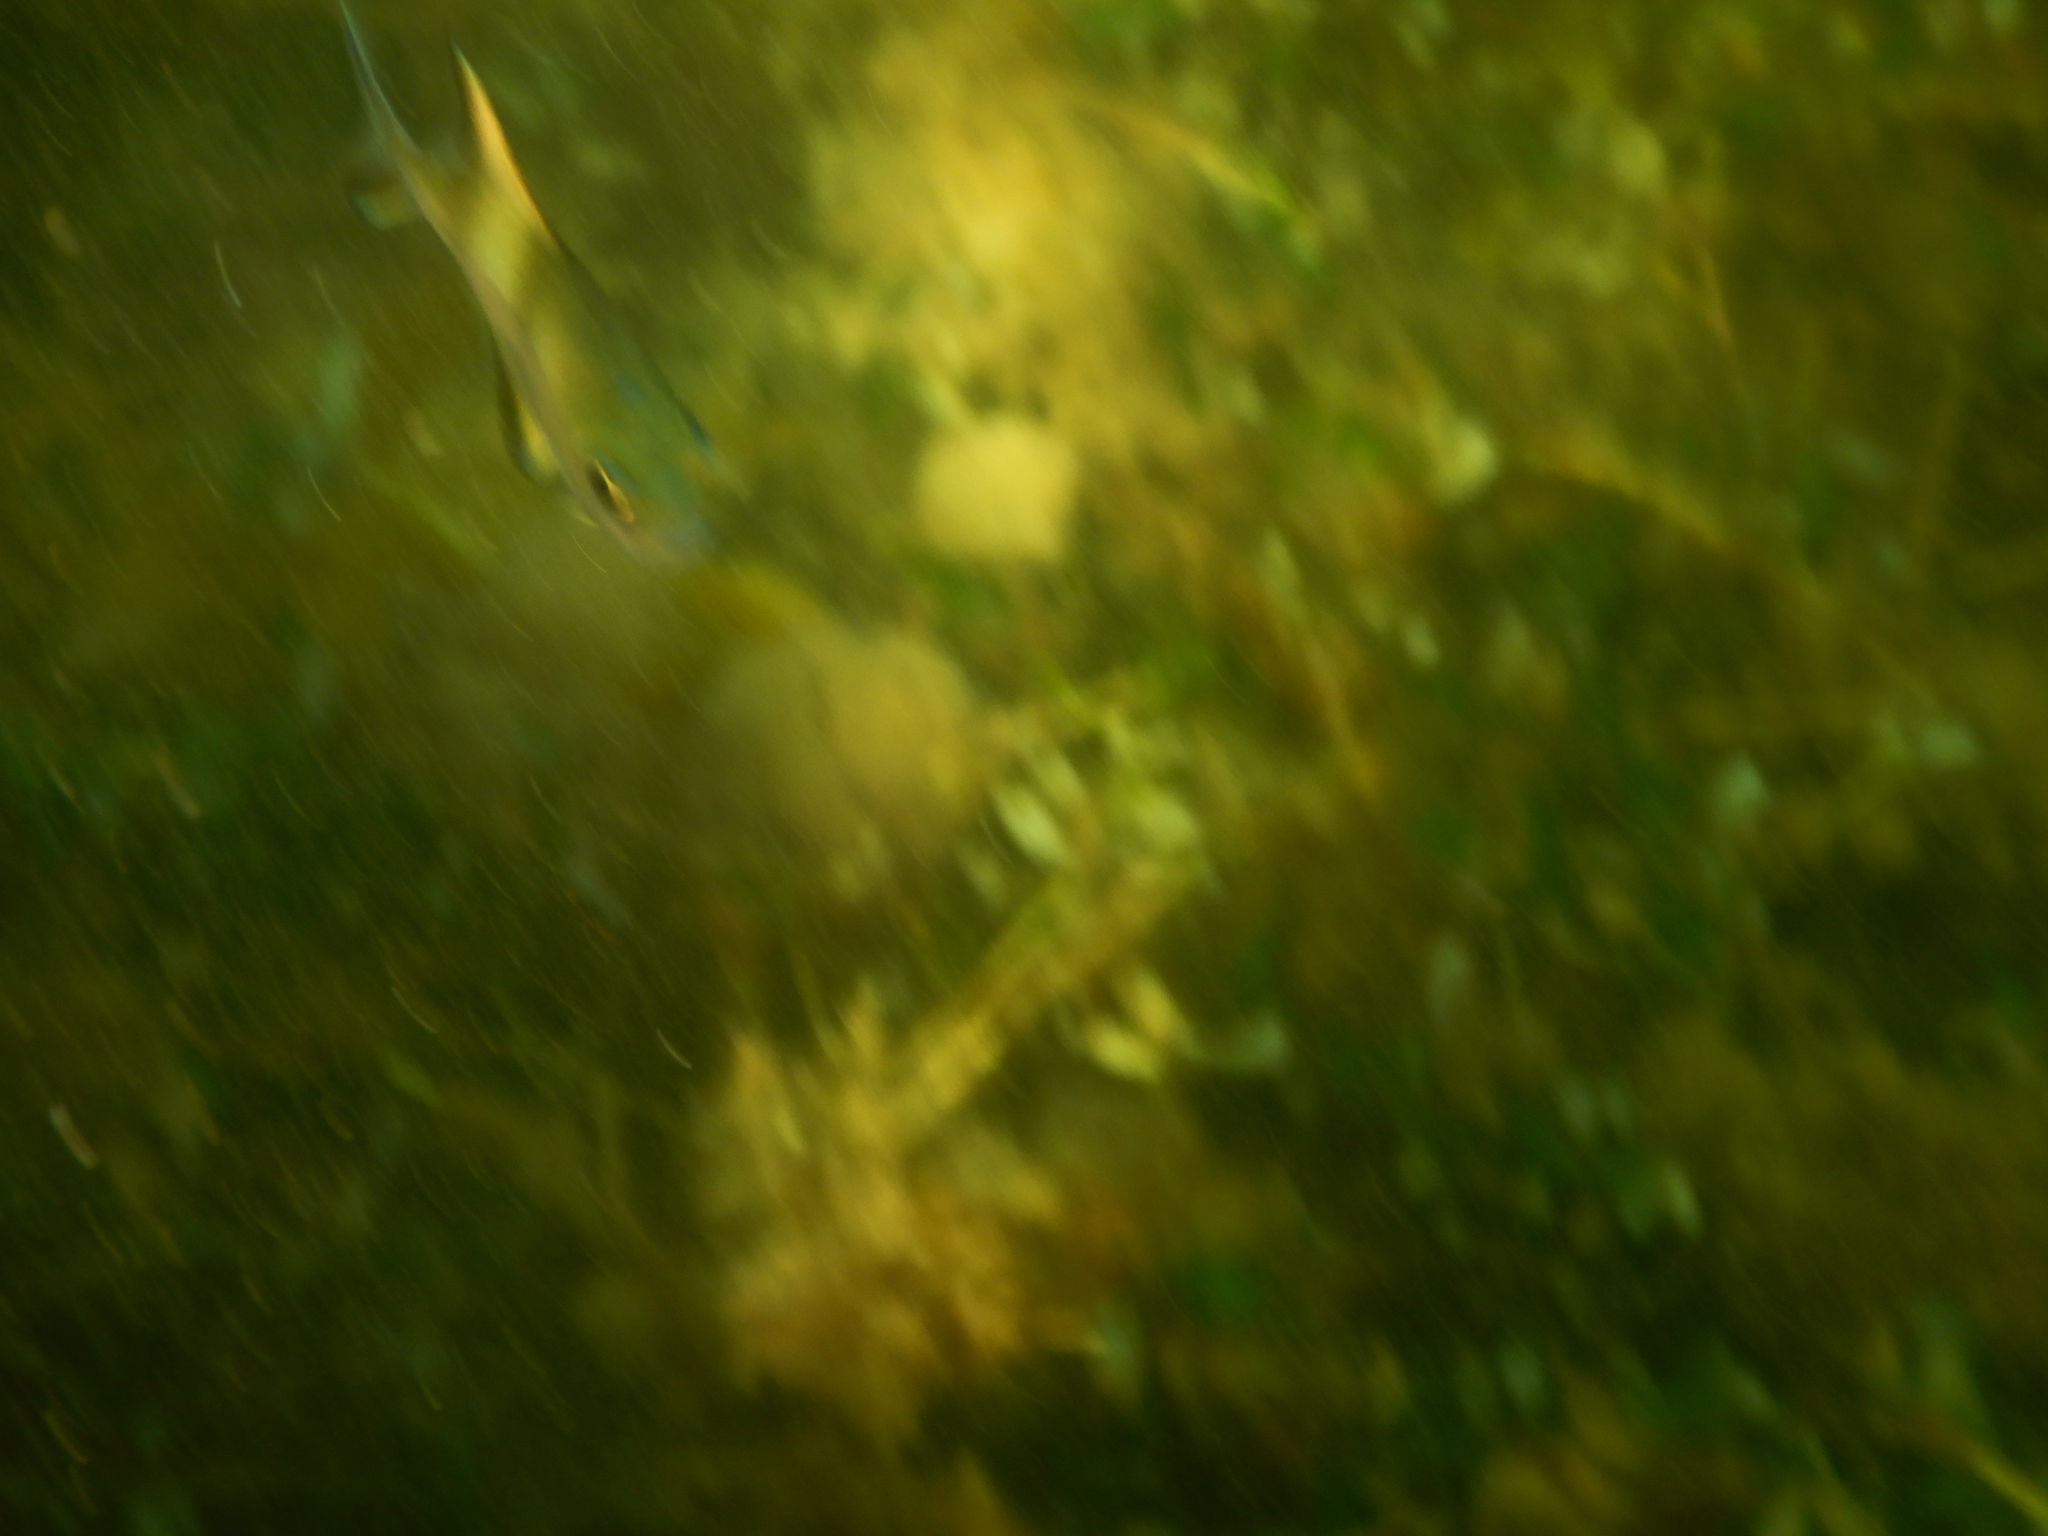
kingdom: Animalia
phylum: Chordata
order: Perciformes
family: Kyphosidae
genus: Scorpis
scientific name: Scorpis aequipinnis
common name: Sea sweep
